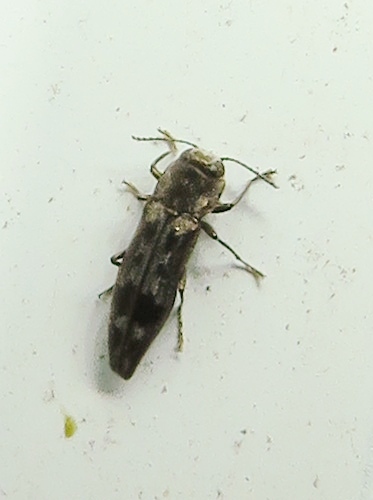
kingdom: Animalia
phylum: Arthropoda
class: Insecta
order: Coleoptera
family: Buprestidae
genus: Agrilus
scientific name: Agrilus lecontei
